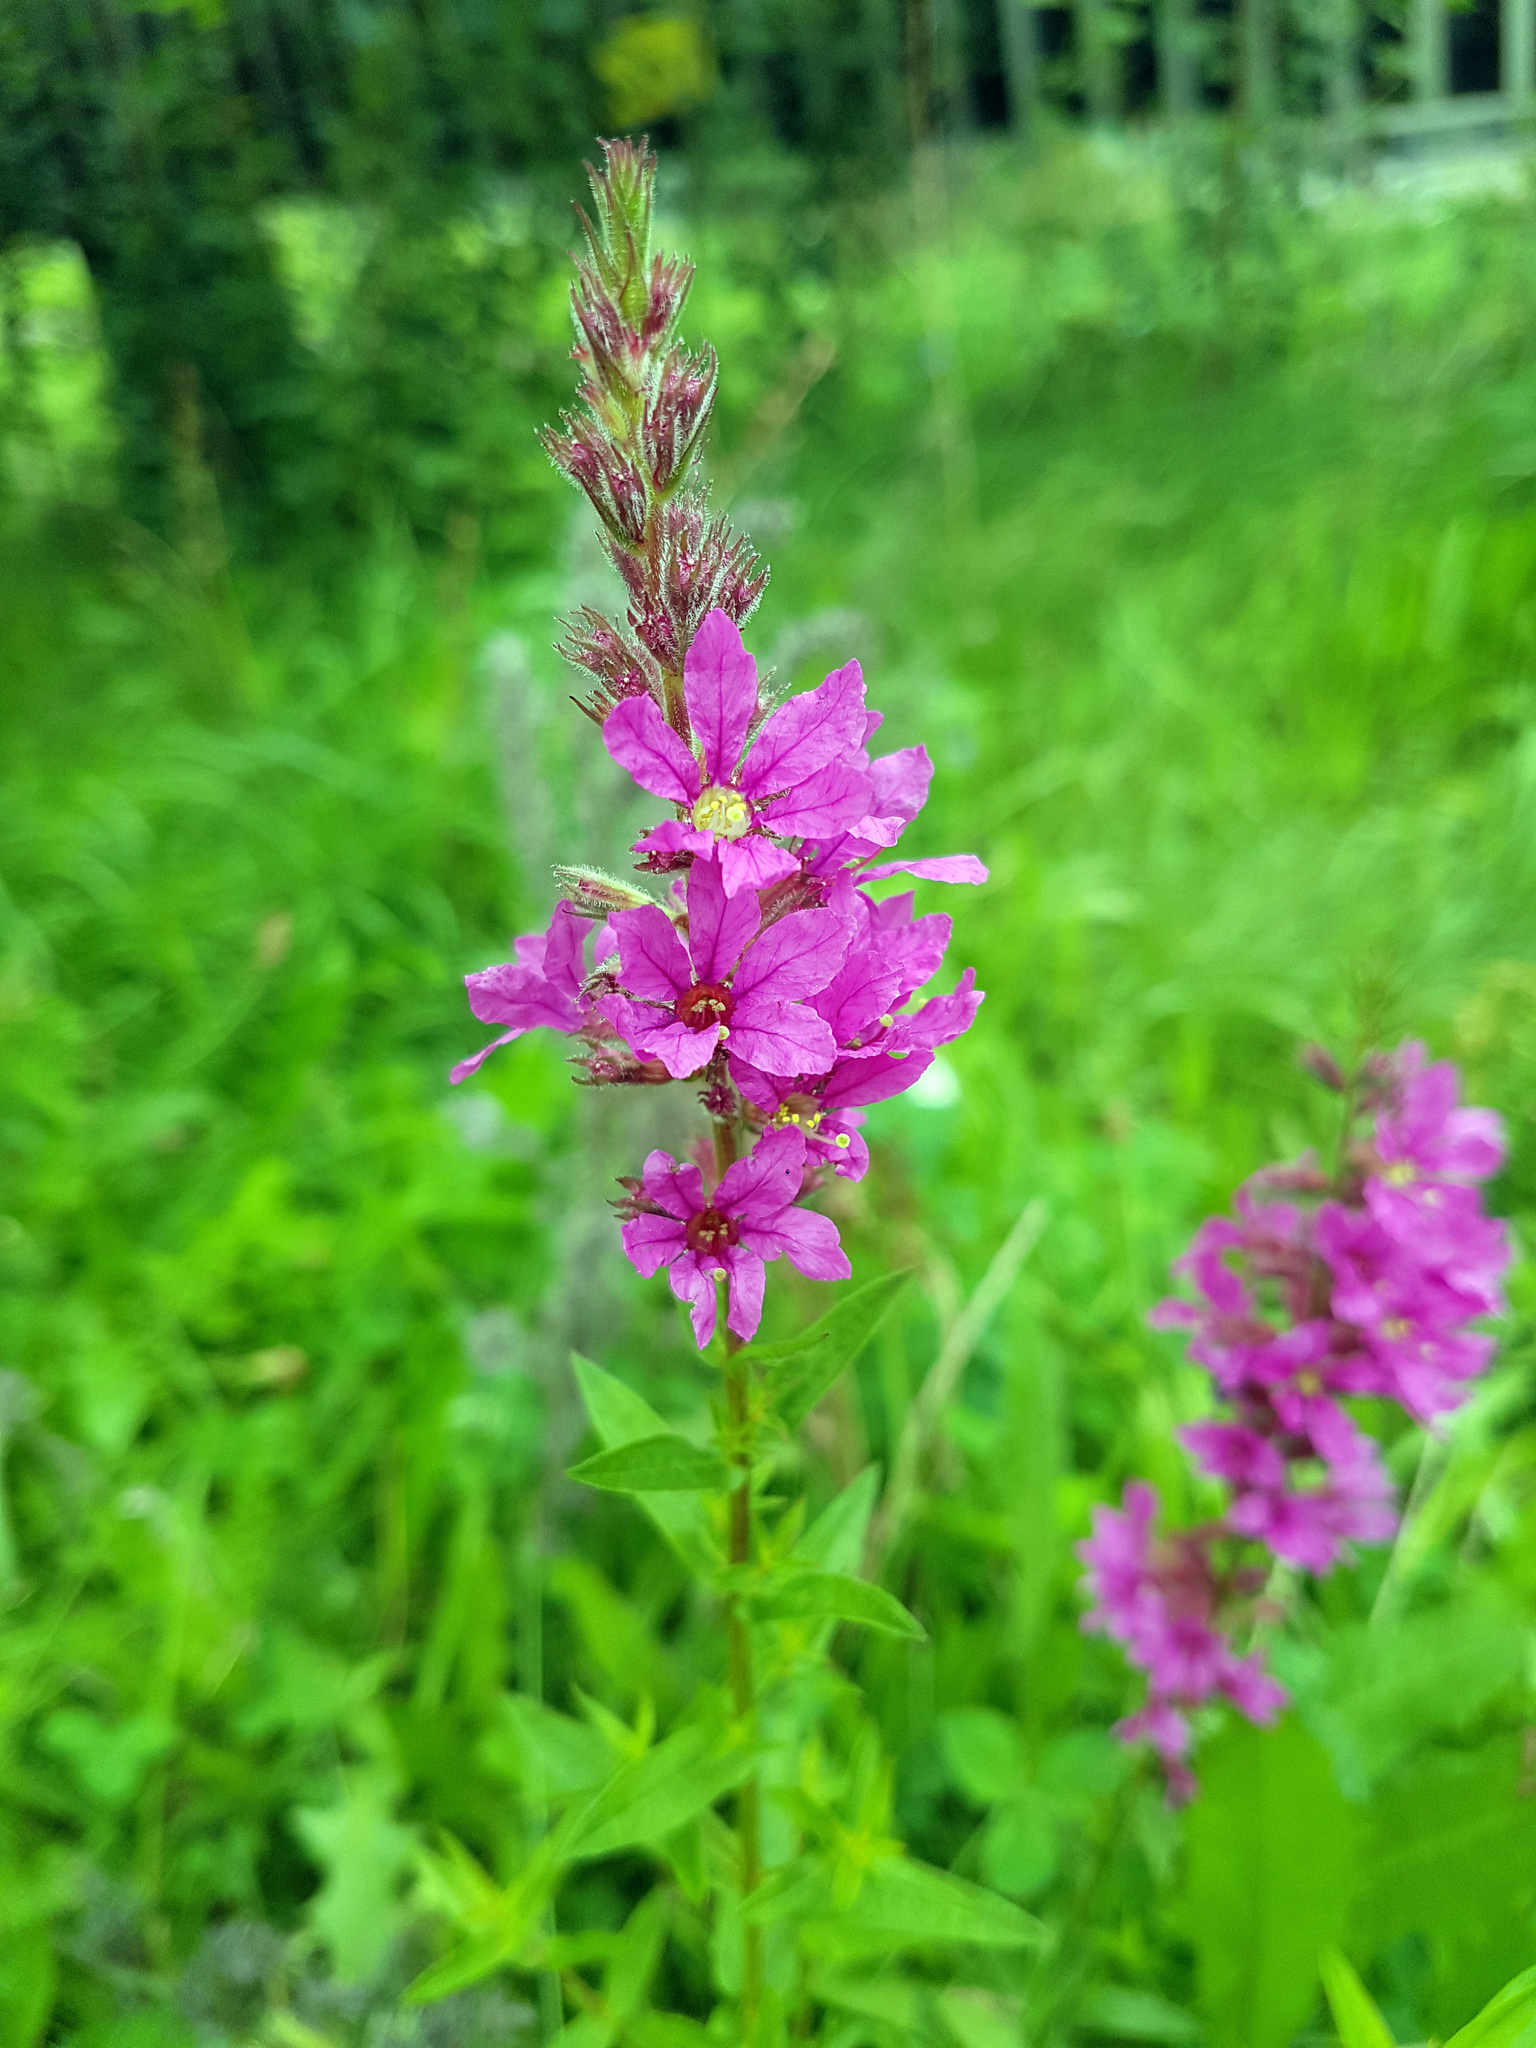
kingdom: Plantae
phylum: Tracheophyta
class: Magnoliopsida
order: Myrtales
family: Lythraceae
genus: Lythrum
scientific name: Lythrum salicaria
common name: Purple loosestrife
